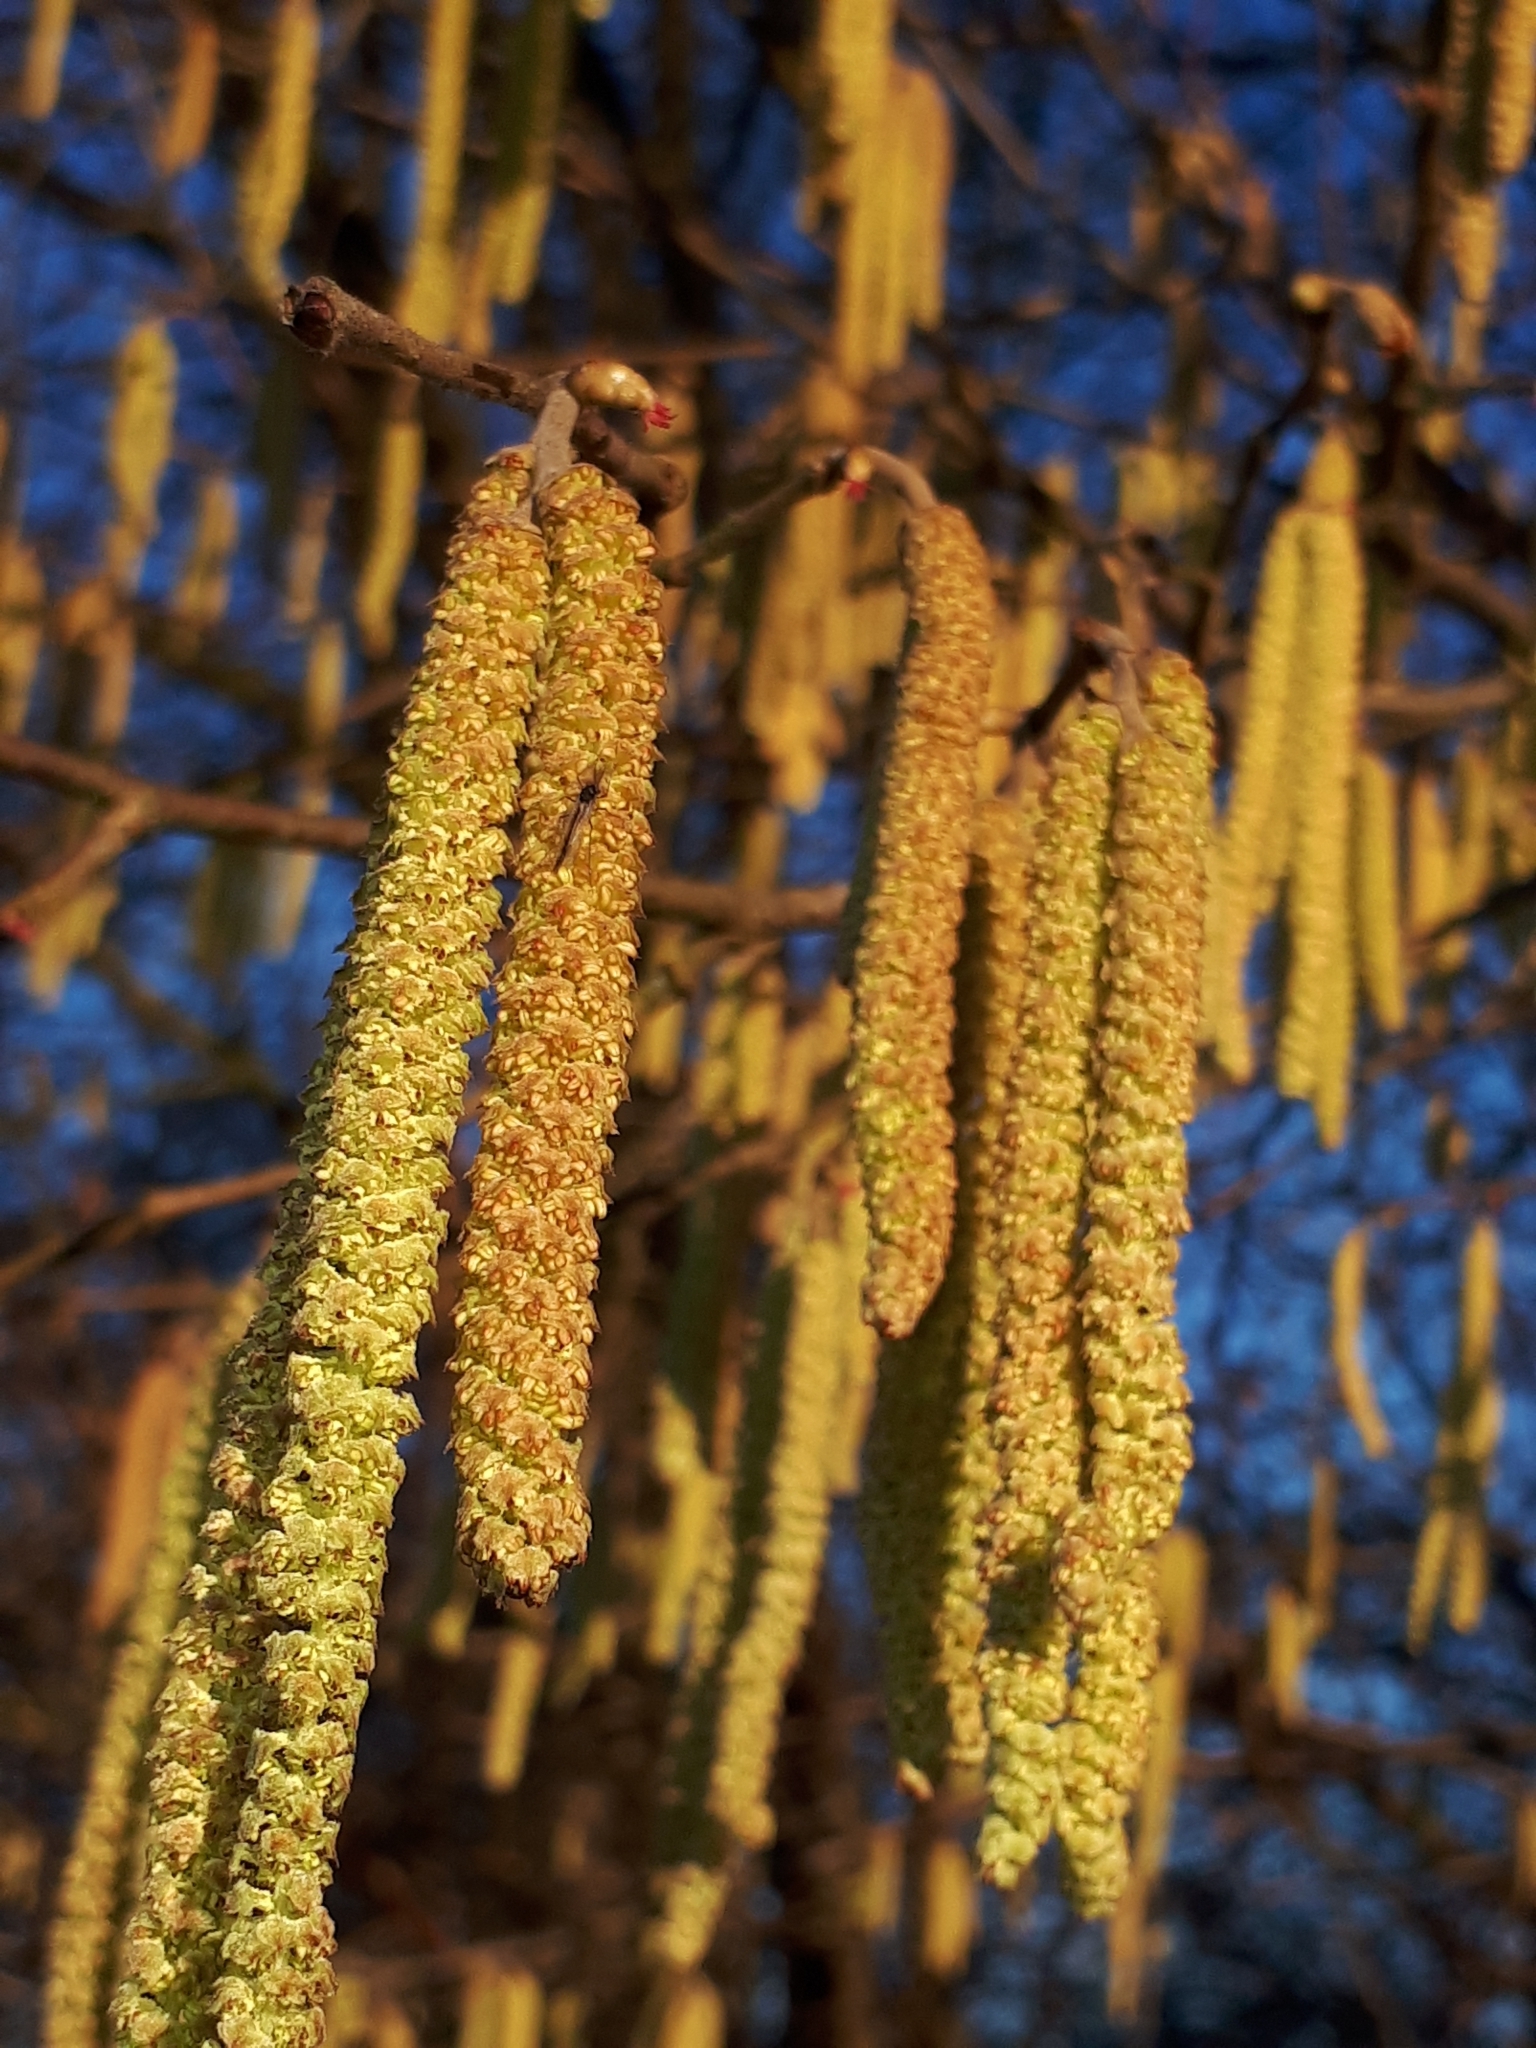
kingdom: Plantae
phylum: Tracheophyta
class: Magnoliopsida
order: Fagales
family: Betulaceae
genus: Corylus
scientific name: Corylus avellana
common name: European hazel
